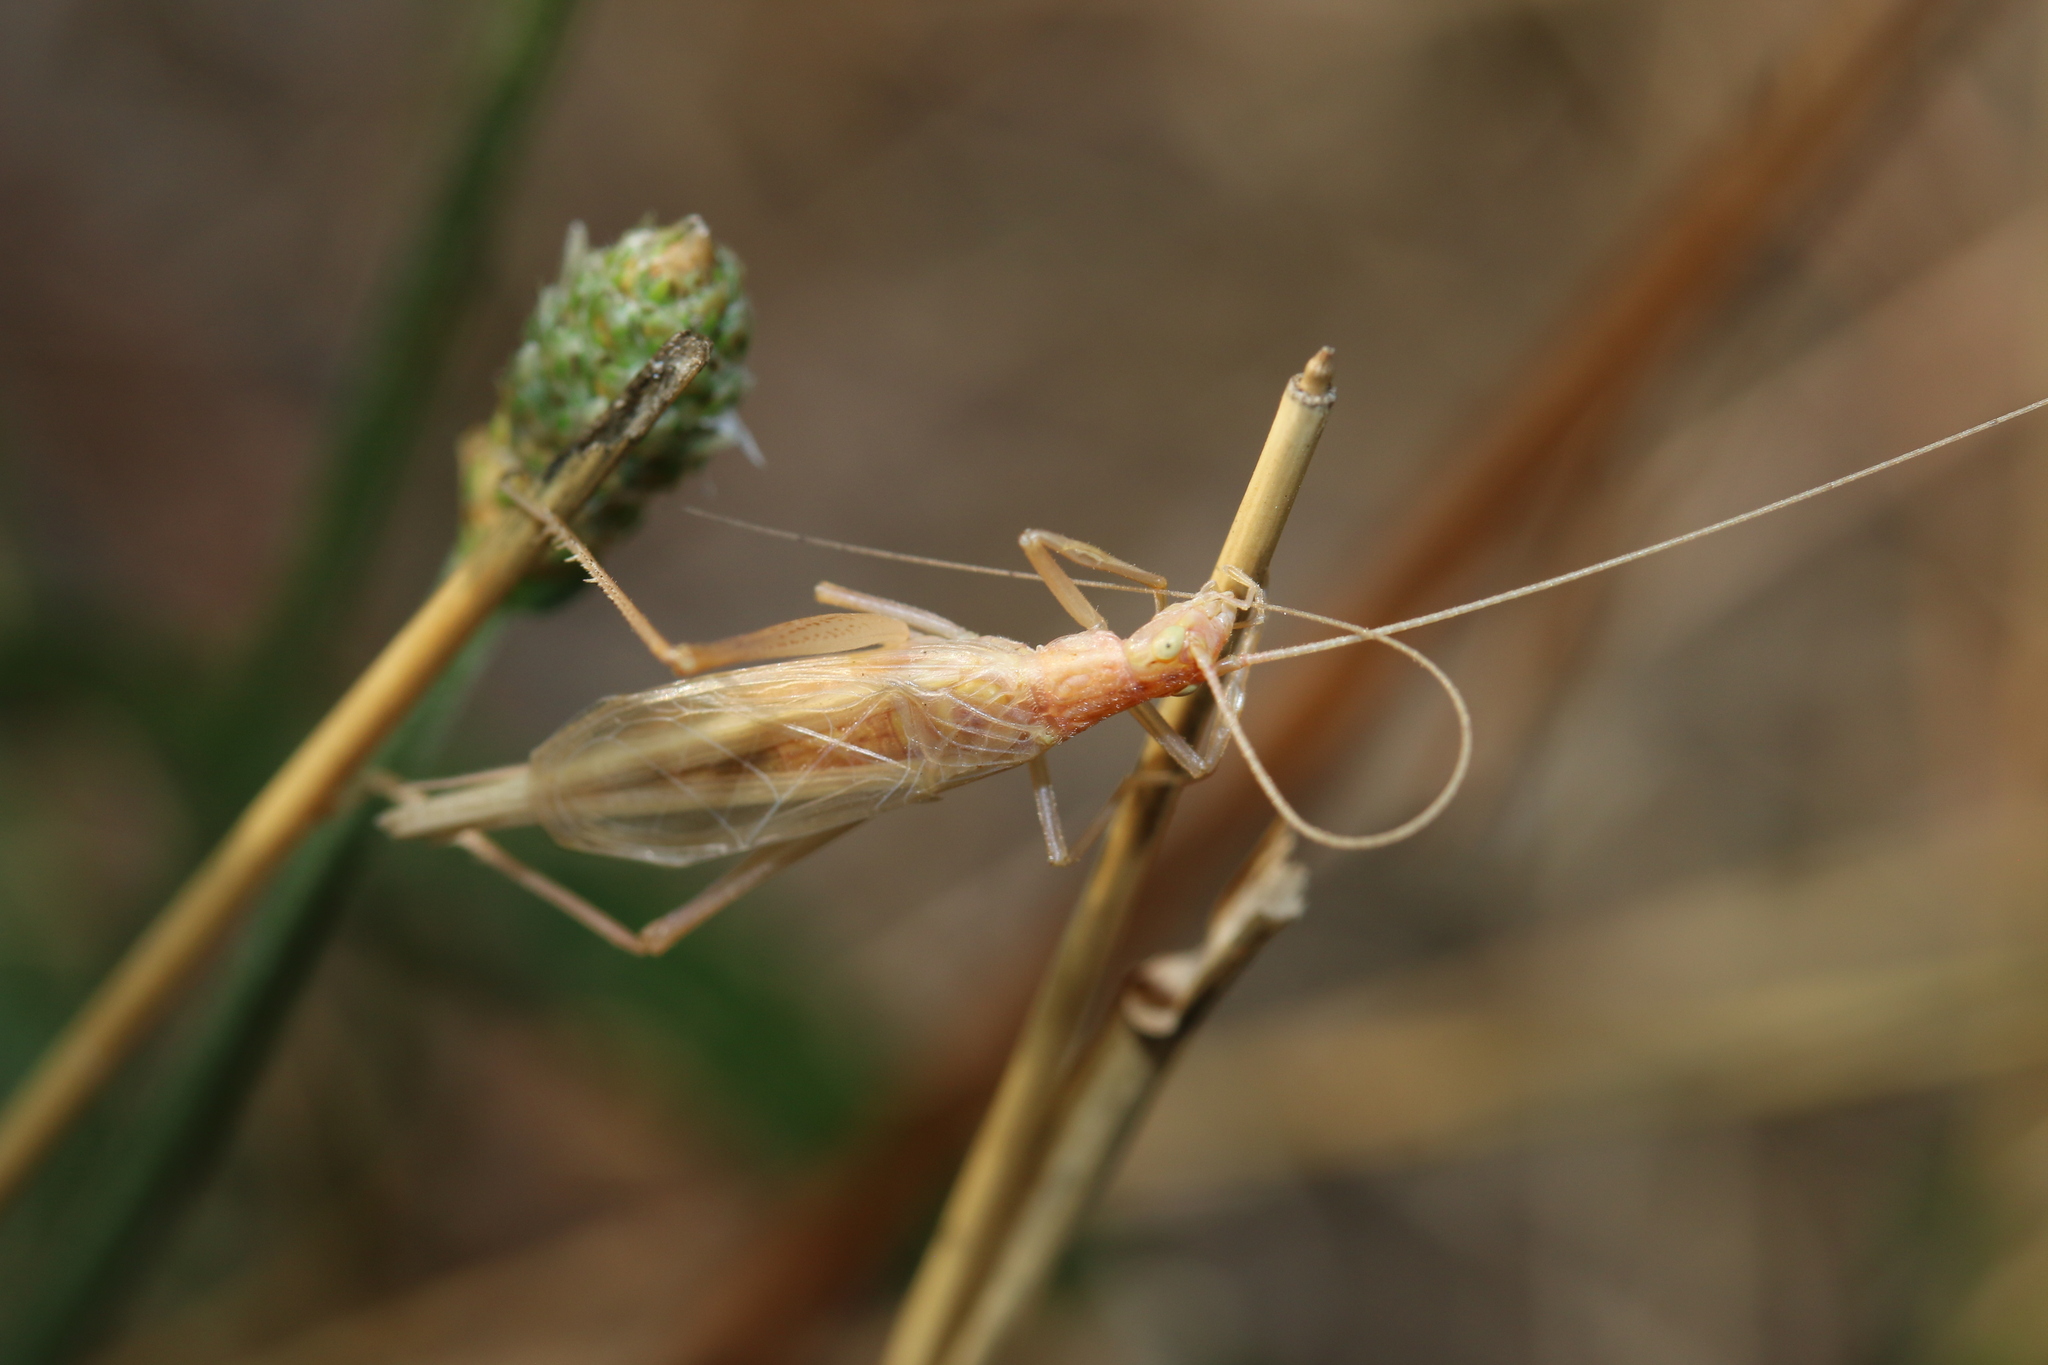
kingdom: Animalia
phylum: Arthropoda
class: Insecta
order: Orthoptera
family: Gryllidae
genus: Oecanthus
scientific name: Oecanthus pellucens
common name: Tree-cricket
